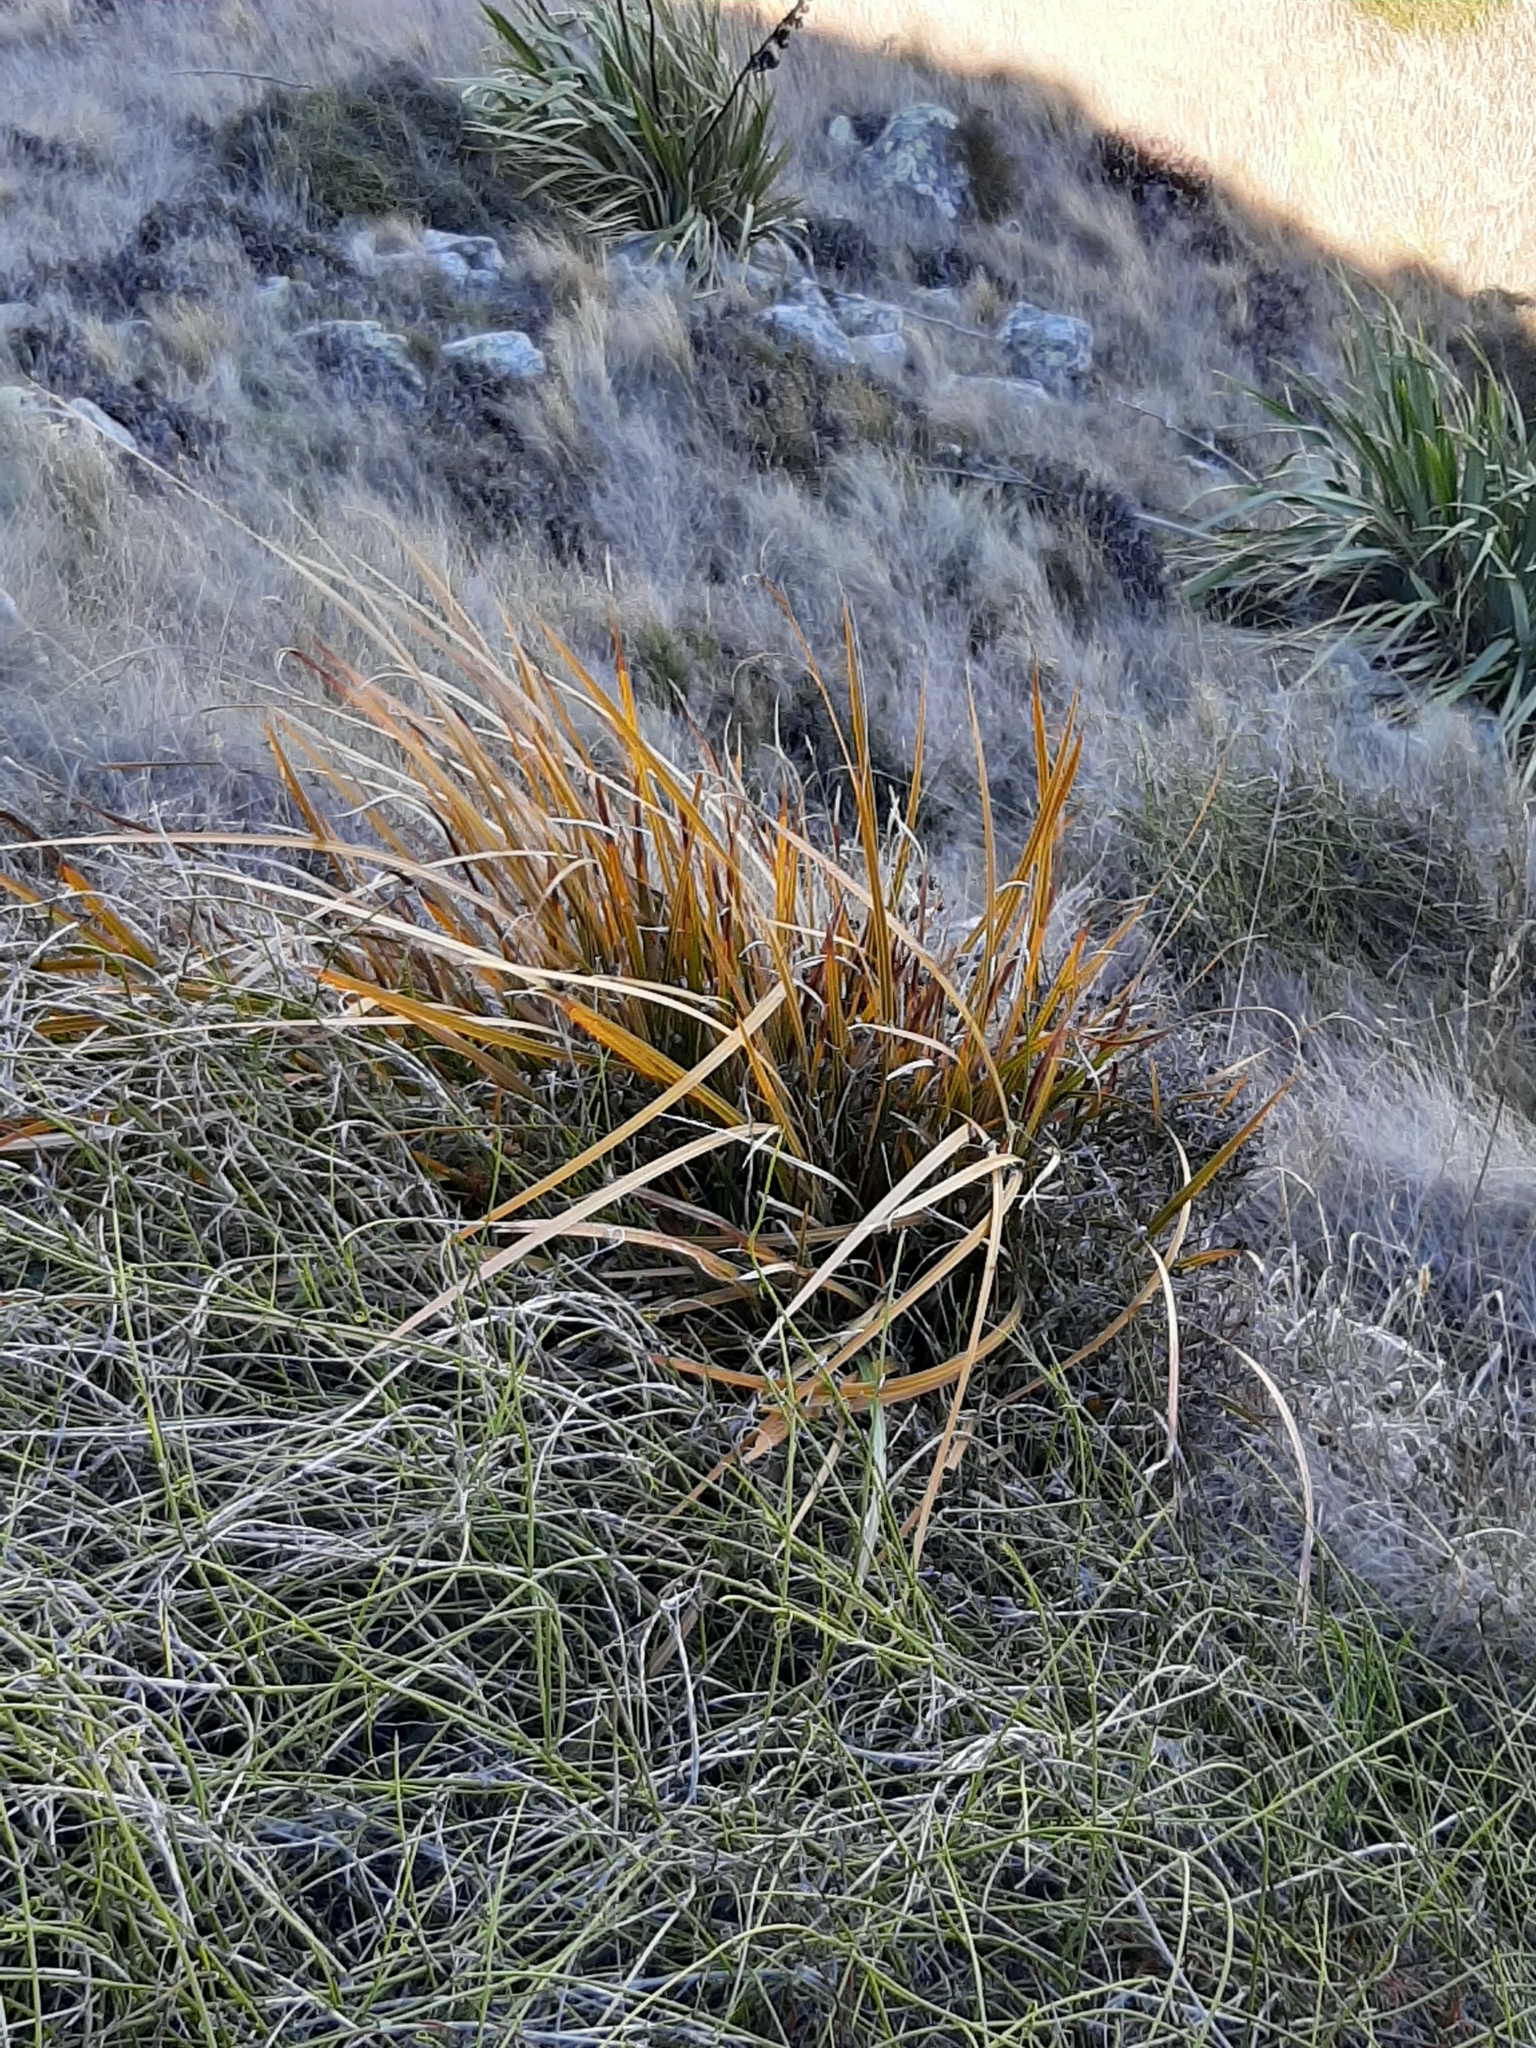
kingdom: Plantae
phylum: Tracheophyta
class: Liliopsida
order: Asparagales
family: Iridaceae
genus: Libertia
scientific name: Libertia ixioides
